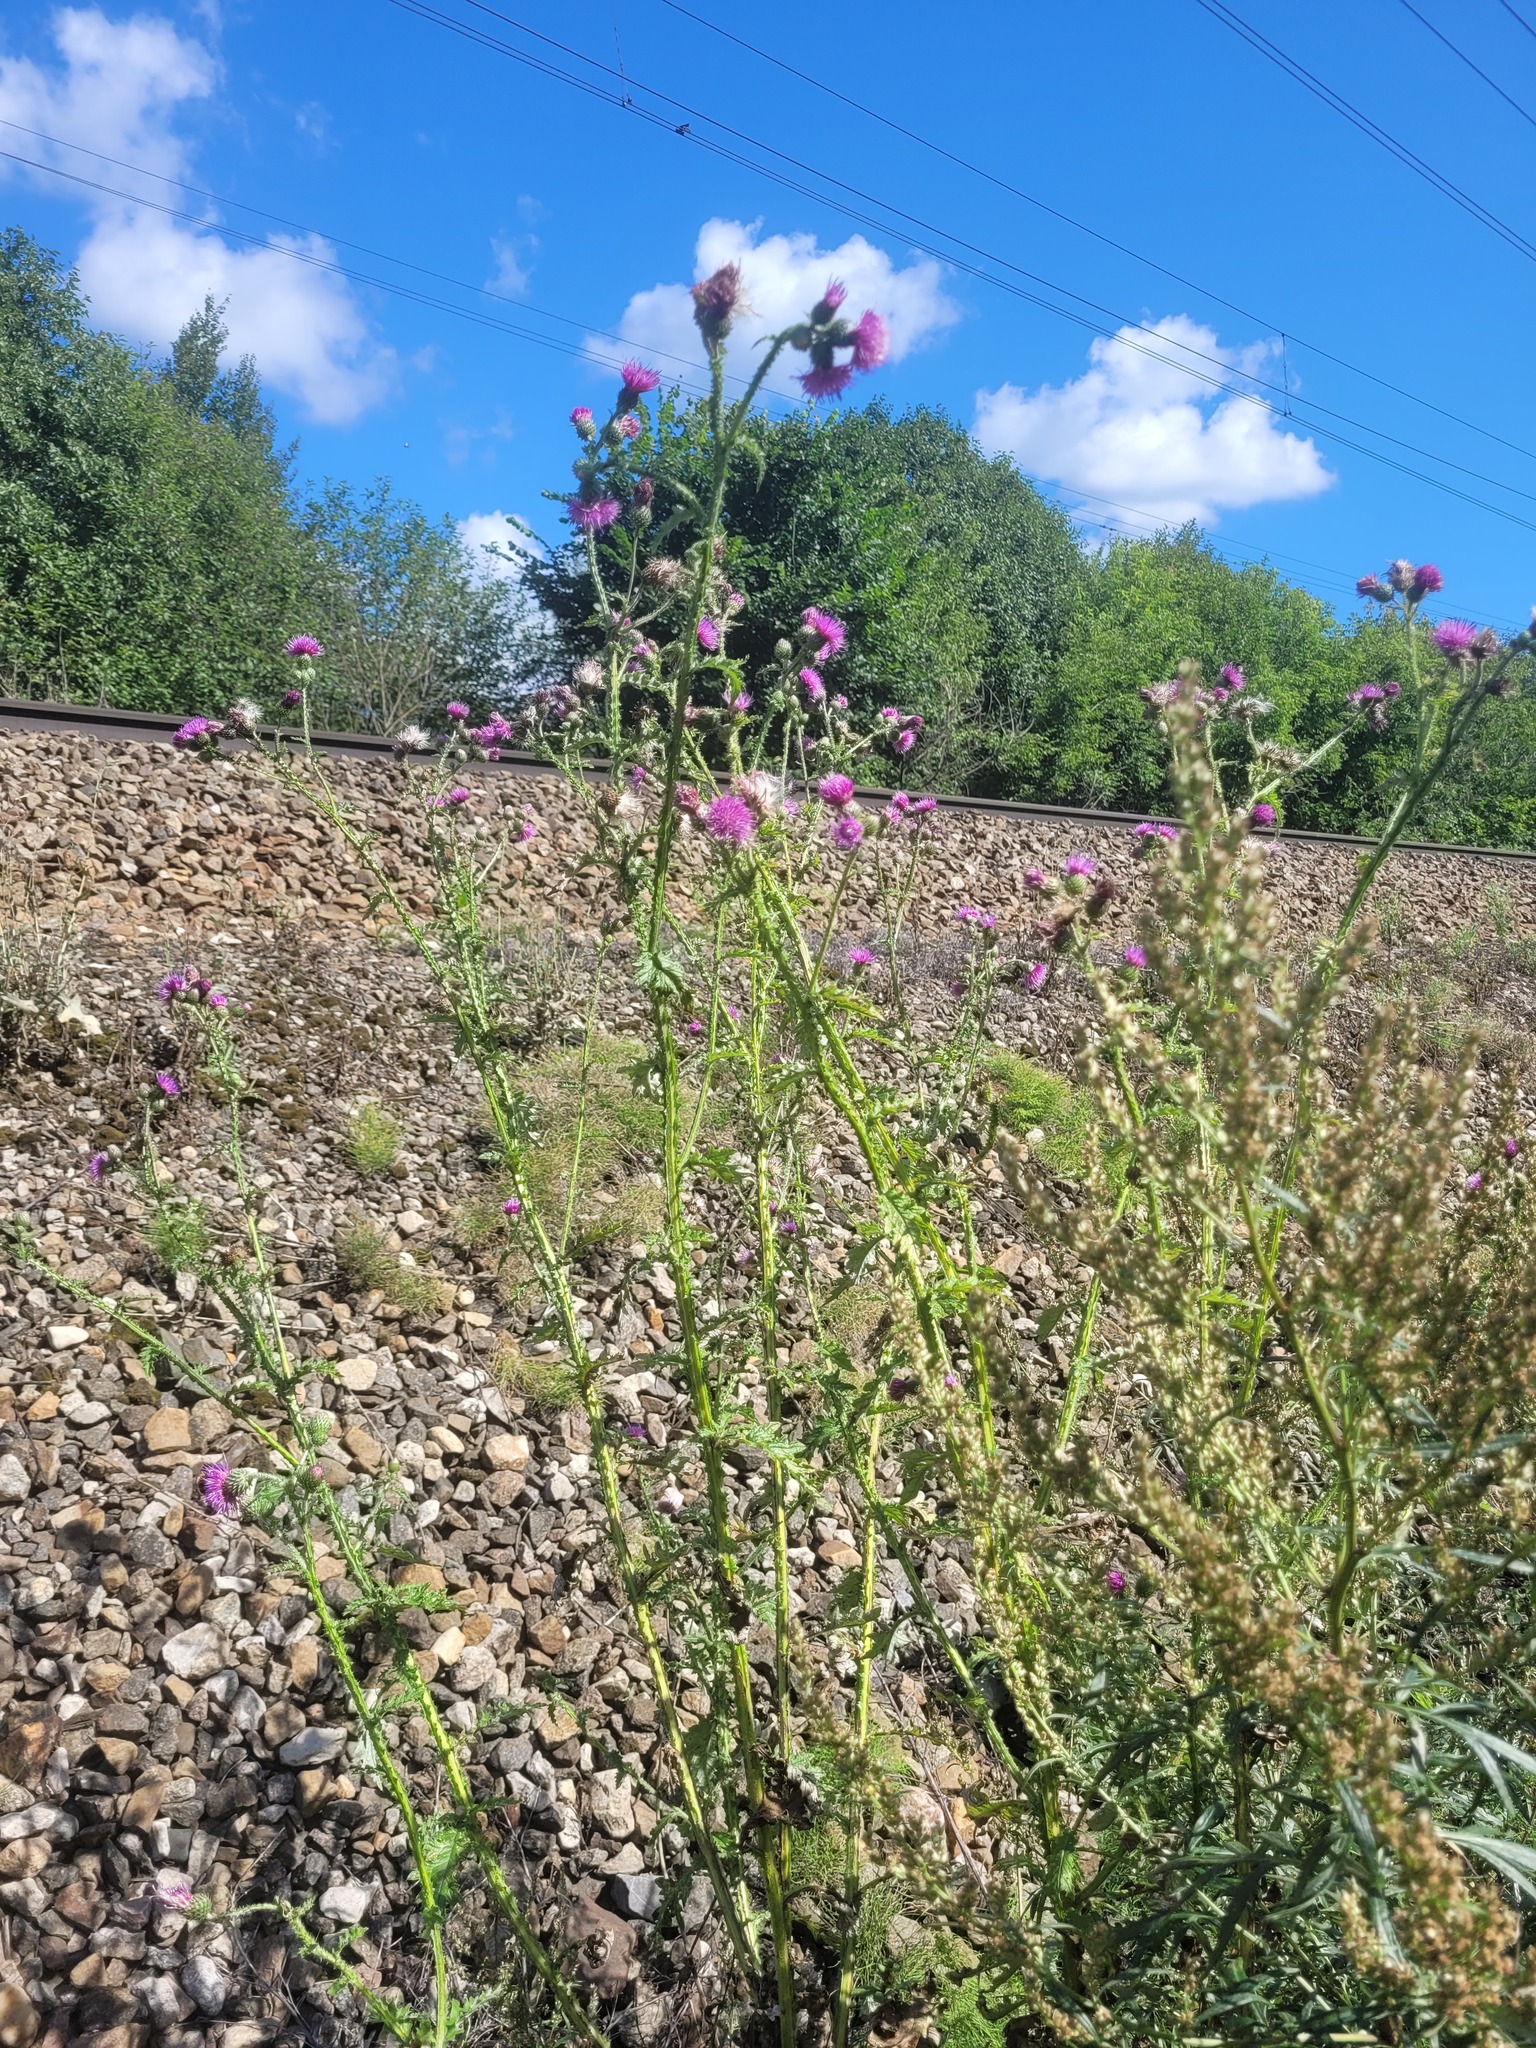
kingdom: Plantae
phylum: Tracheophyta
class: Magnoliopsida
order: Asterales
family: Asteraceae
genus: Carduus
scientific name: Carduus crispus
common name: Welted thistle
